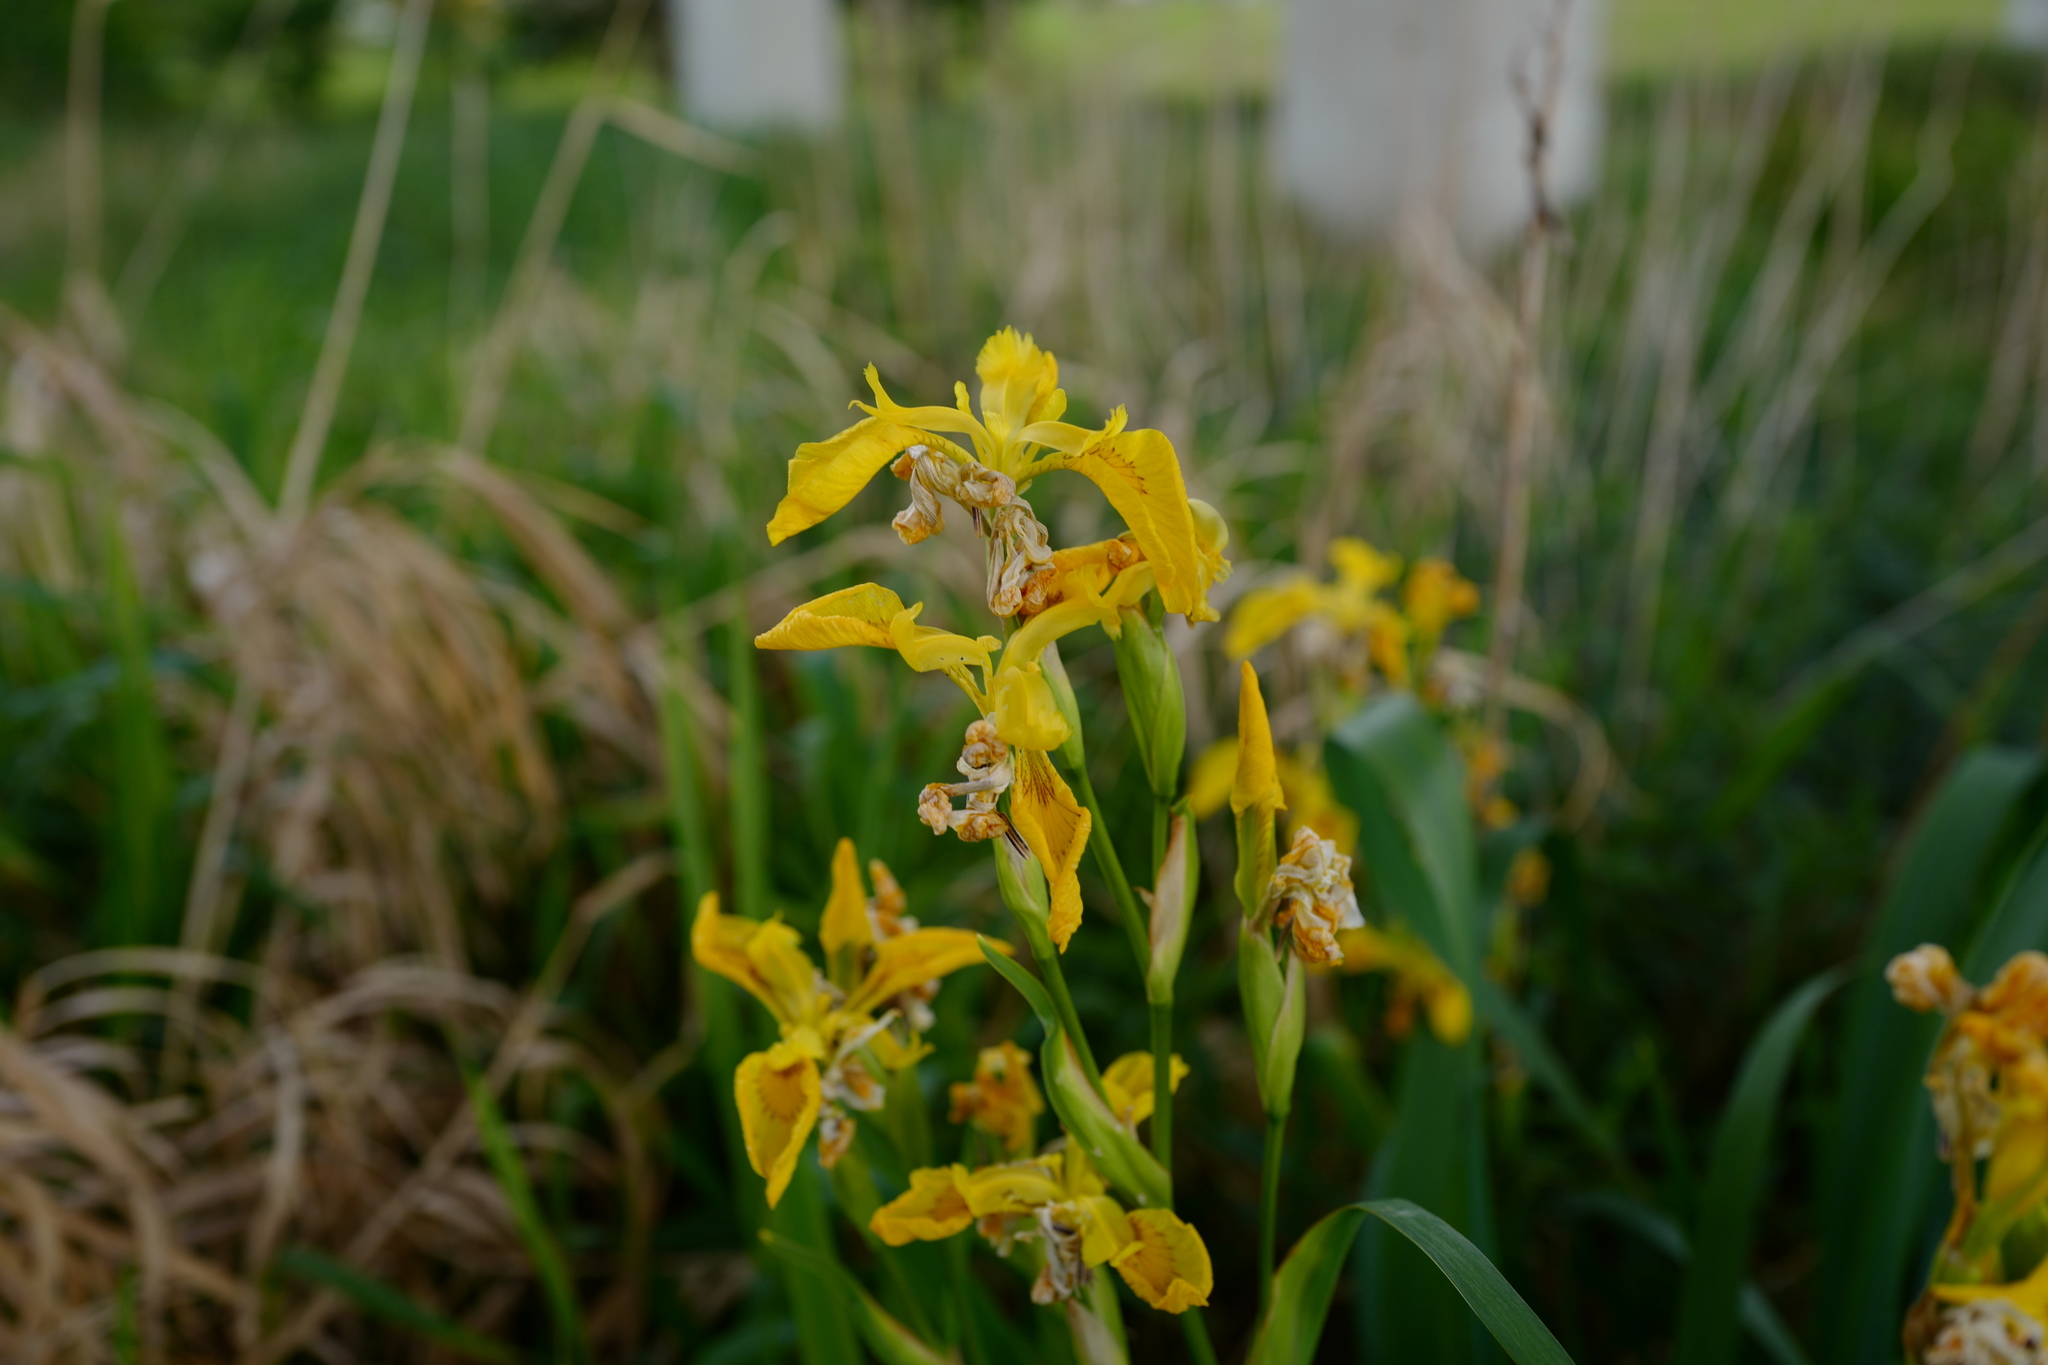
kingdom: Plantae
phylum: Tracheophyta
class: Liliopsida
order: Asparagales
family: Iridaceae
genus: Iris
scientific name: Iris pseudacorus
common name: Yellow flag
